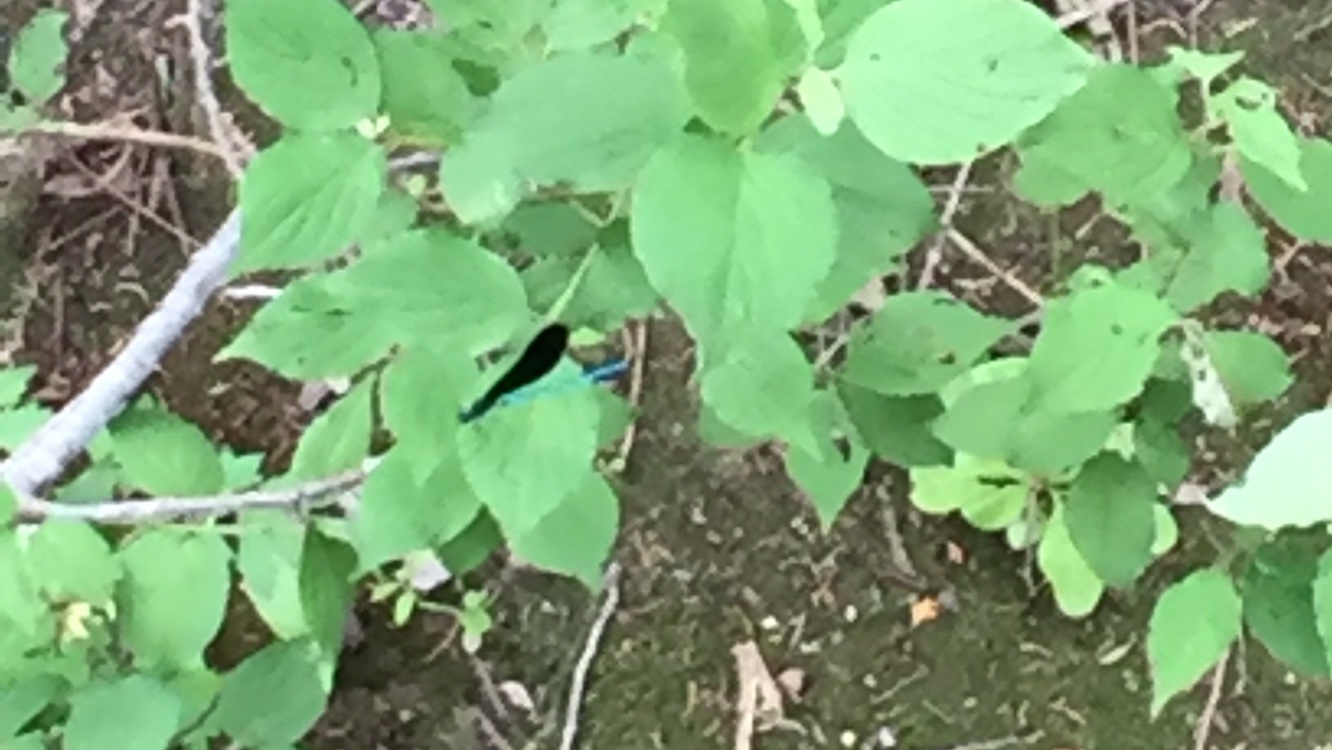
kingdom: Animalia
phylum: Arthropoda
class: Insecta
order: Odonata
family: Calopterygidae
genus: Calopteryx
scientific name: Calopteryx maculata
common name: Ebony jewelwing
